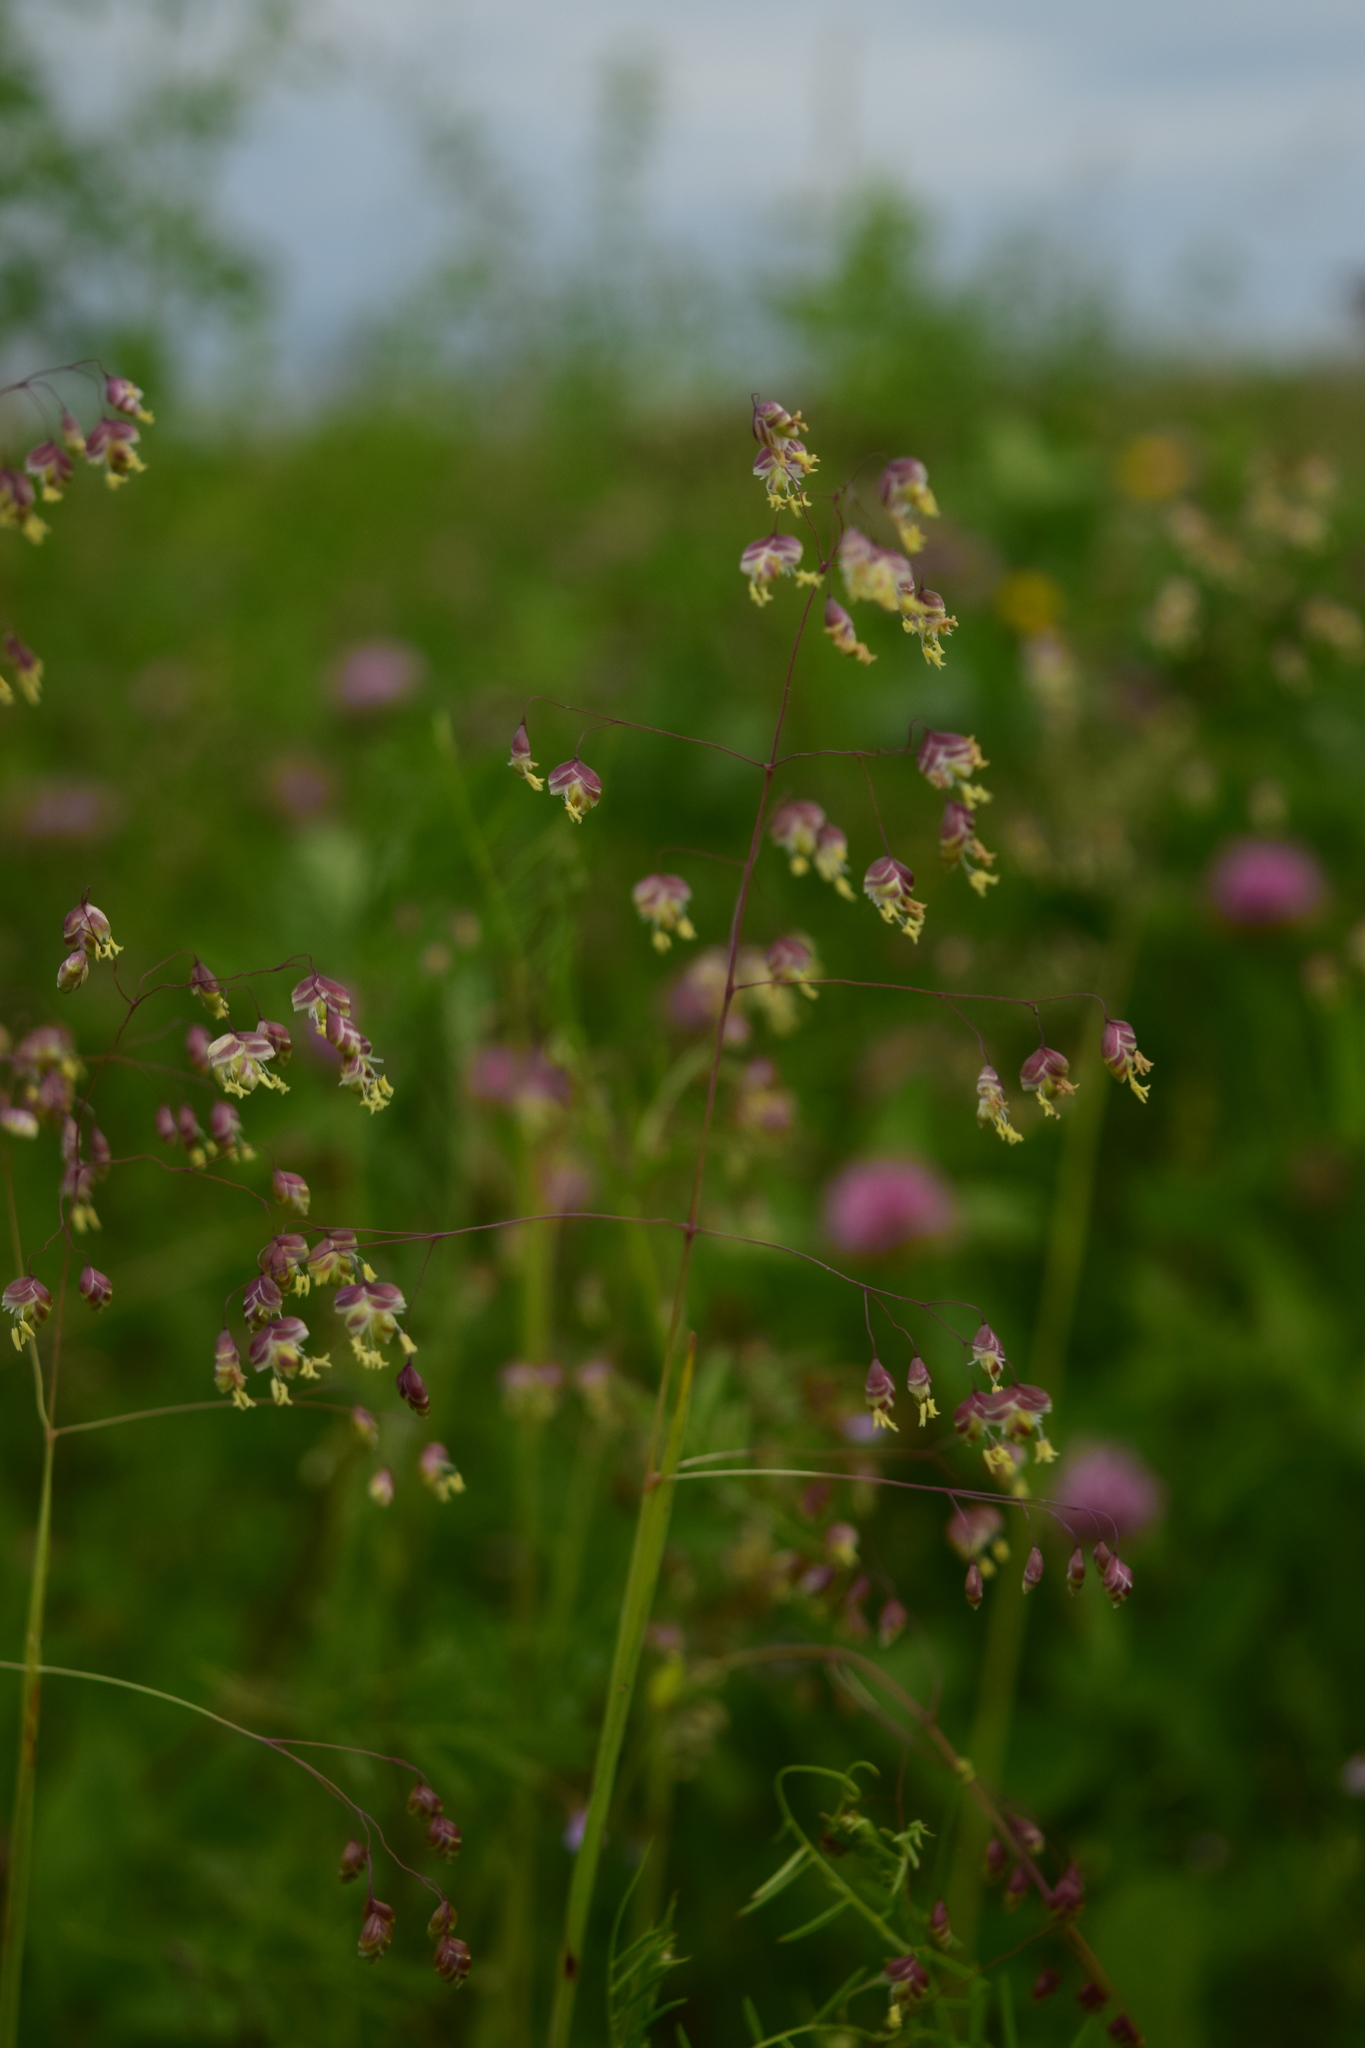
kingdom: Plantae
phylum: Tracheophyta
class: Liliopsida
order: Poales
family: Poaceae
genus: Briza
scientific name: Briza media
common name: Quaking grass
